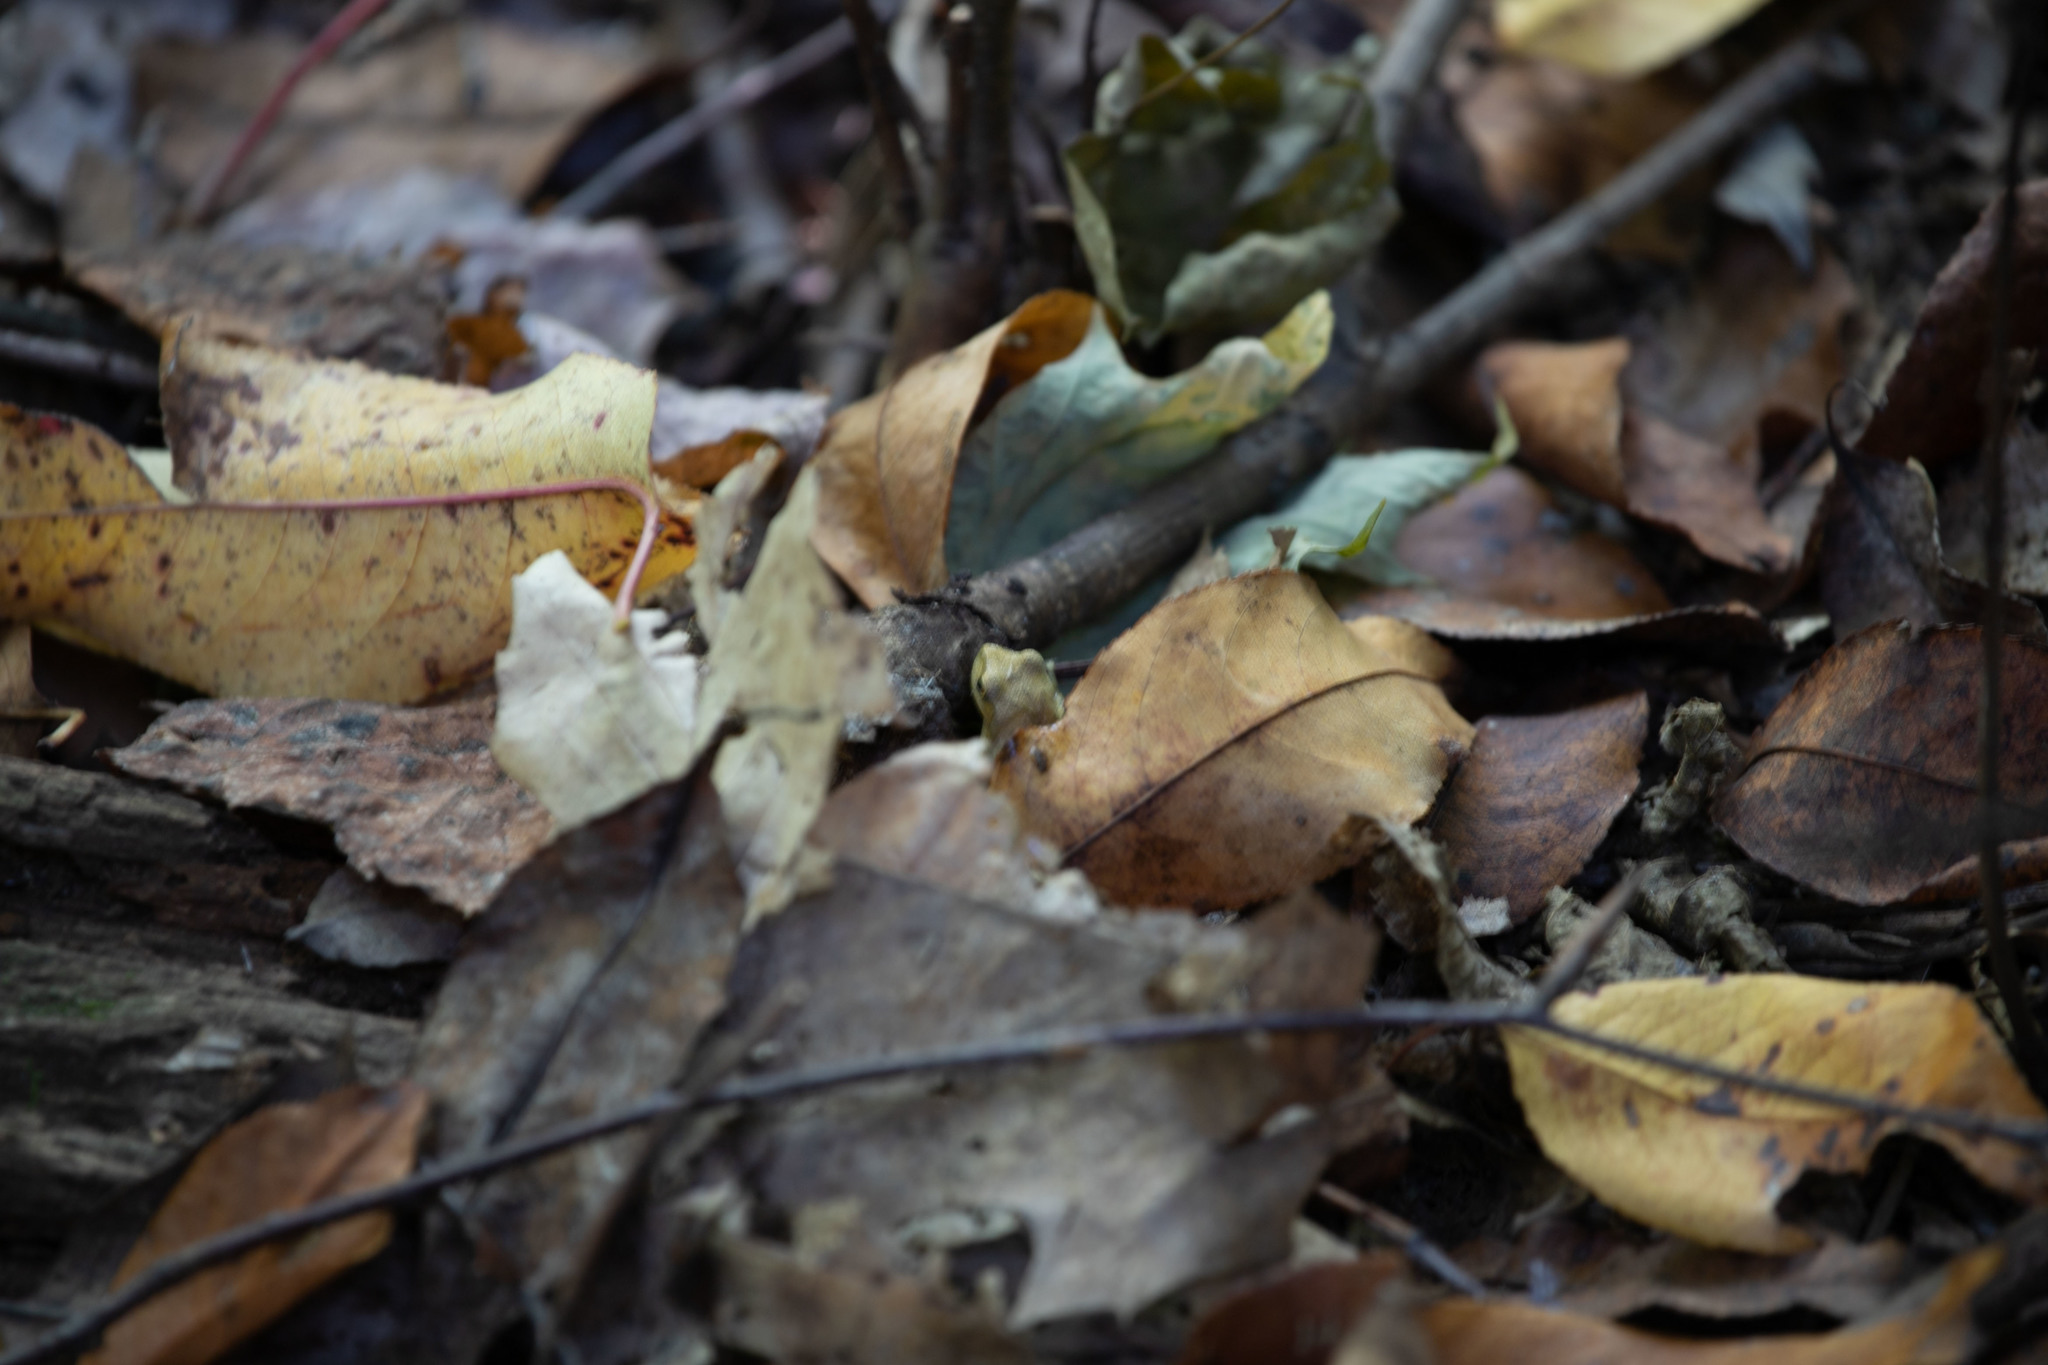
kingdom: Animalia
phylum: Chordata
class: Amphibia
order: Anura
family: Hylidae
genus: Pseudacris
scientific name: Pseudacris crucifer
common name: Spring peeper
